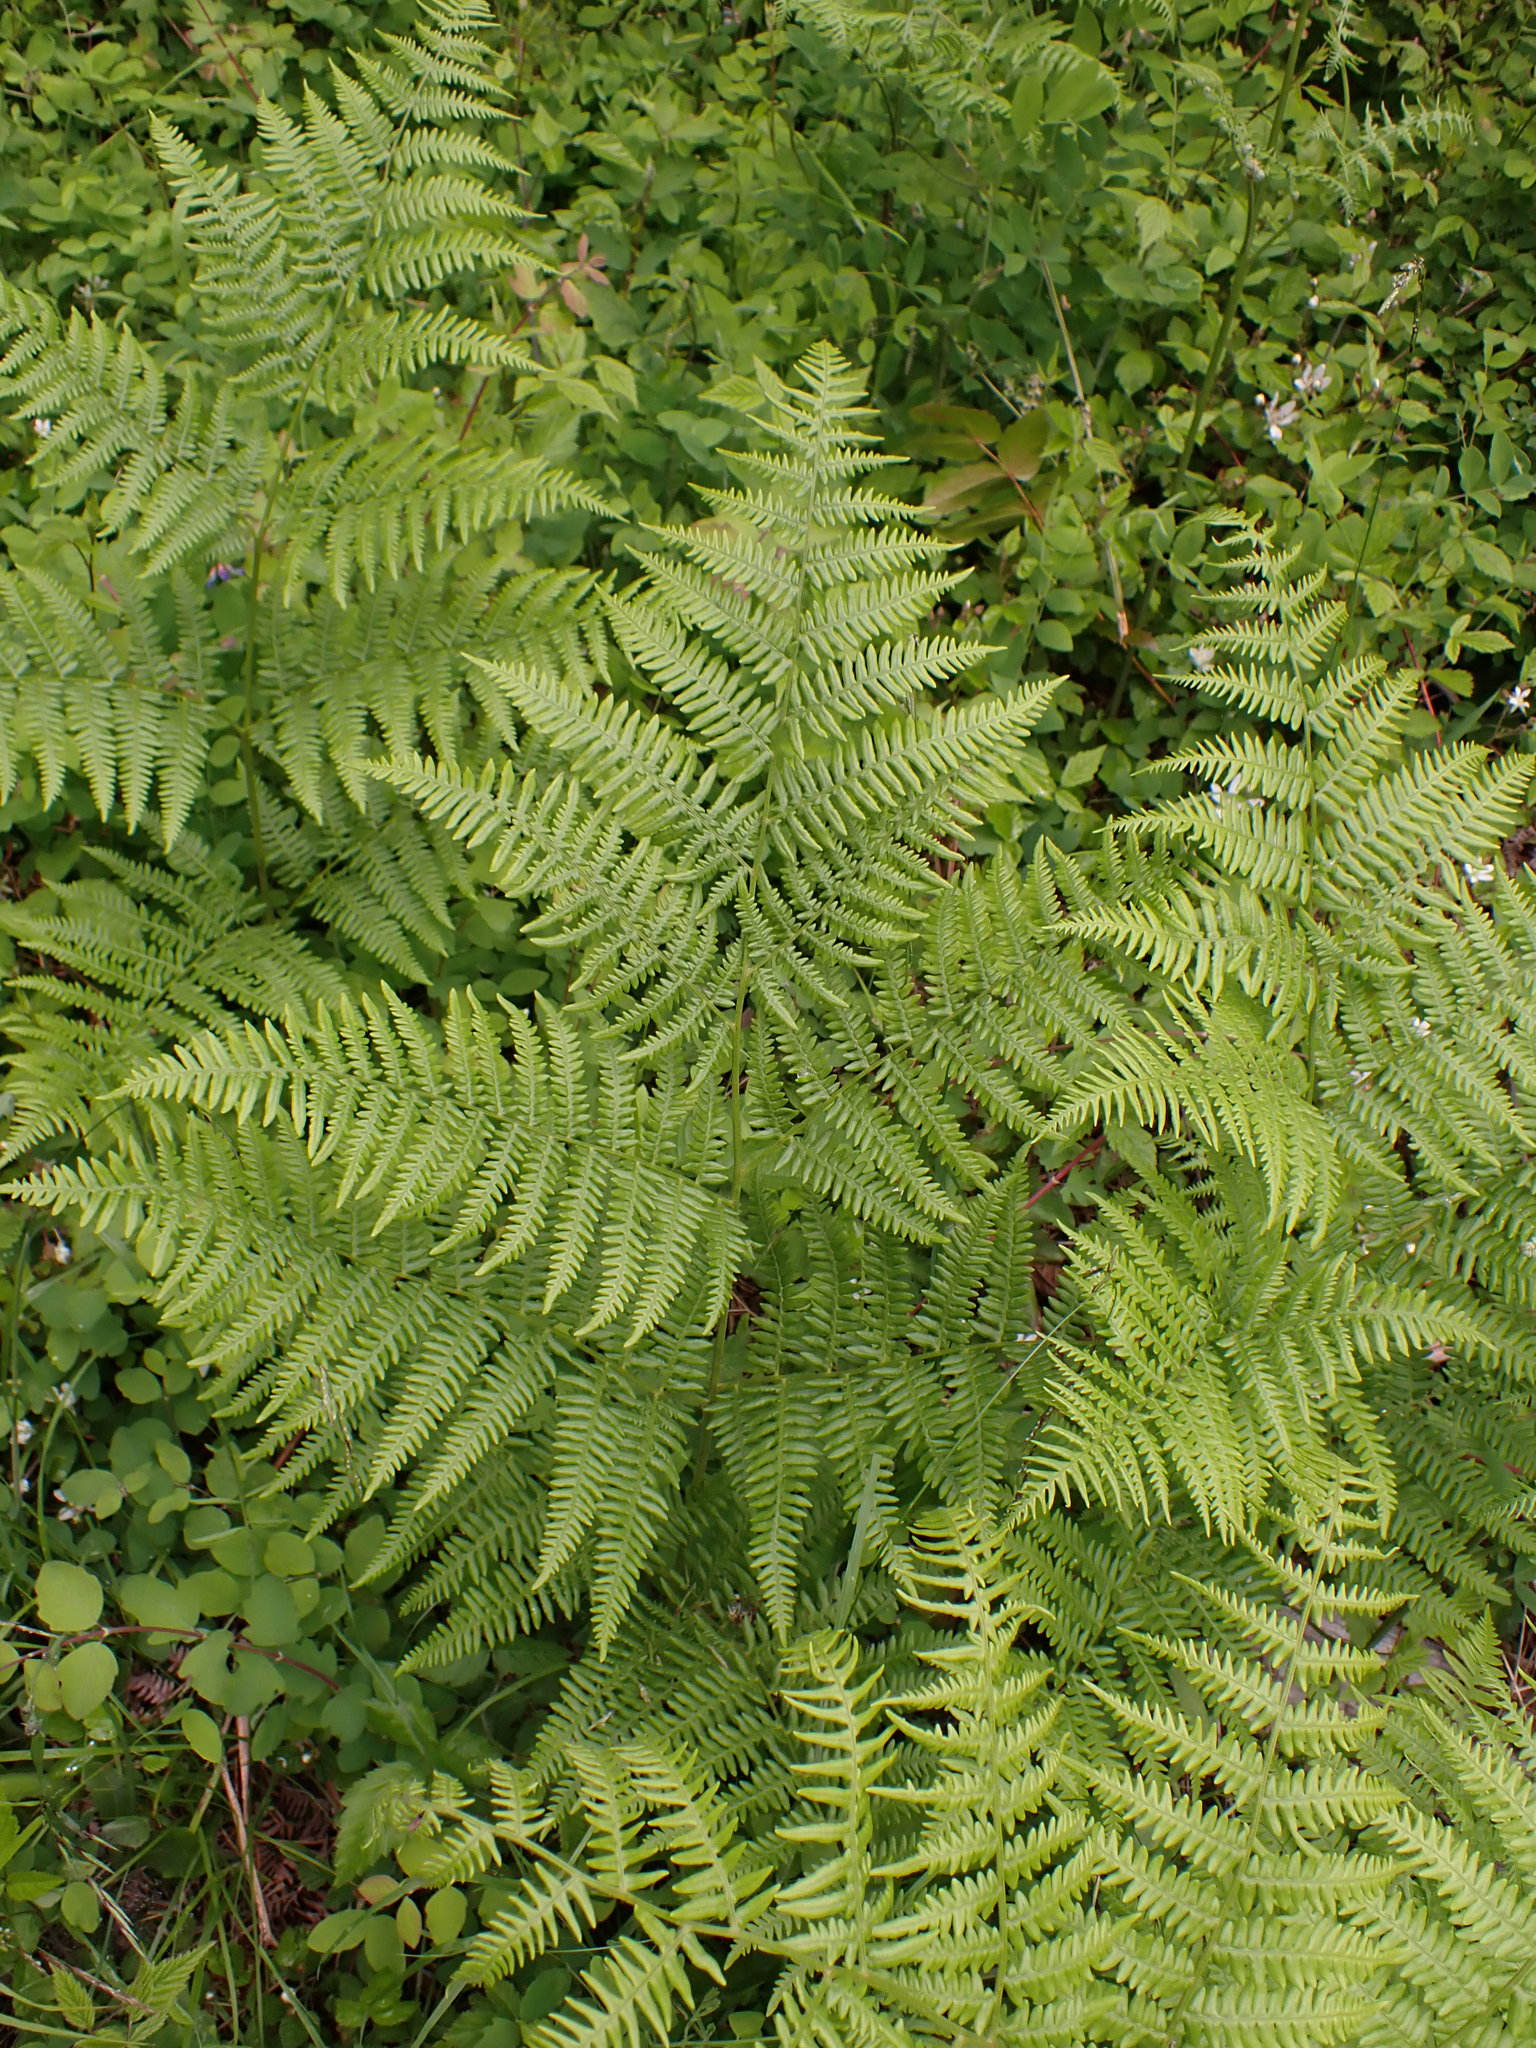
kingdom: Plantae
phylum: Tracheophyta
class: Polypodiopsida
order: Polypodiales
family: Dennstaedtiaceae
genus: Pteridium
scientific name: Pteridium aquilinum
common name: Bracken
